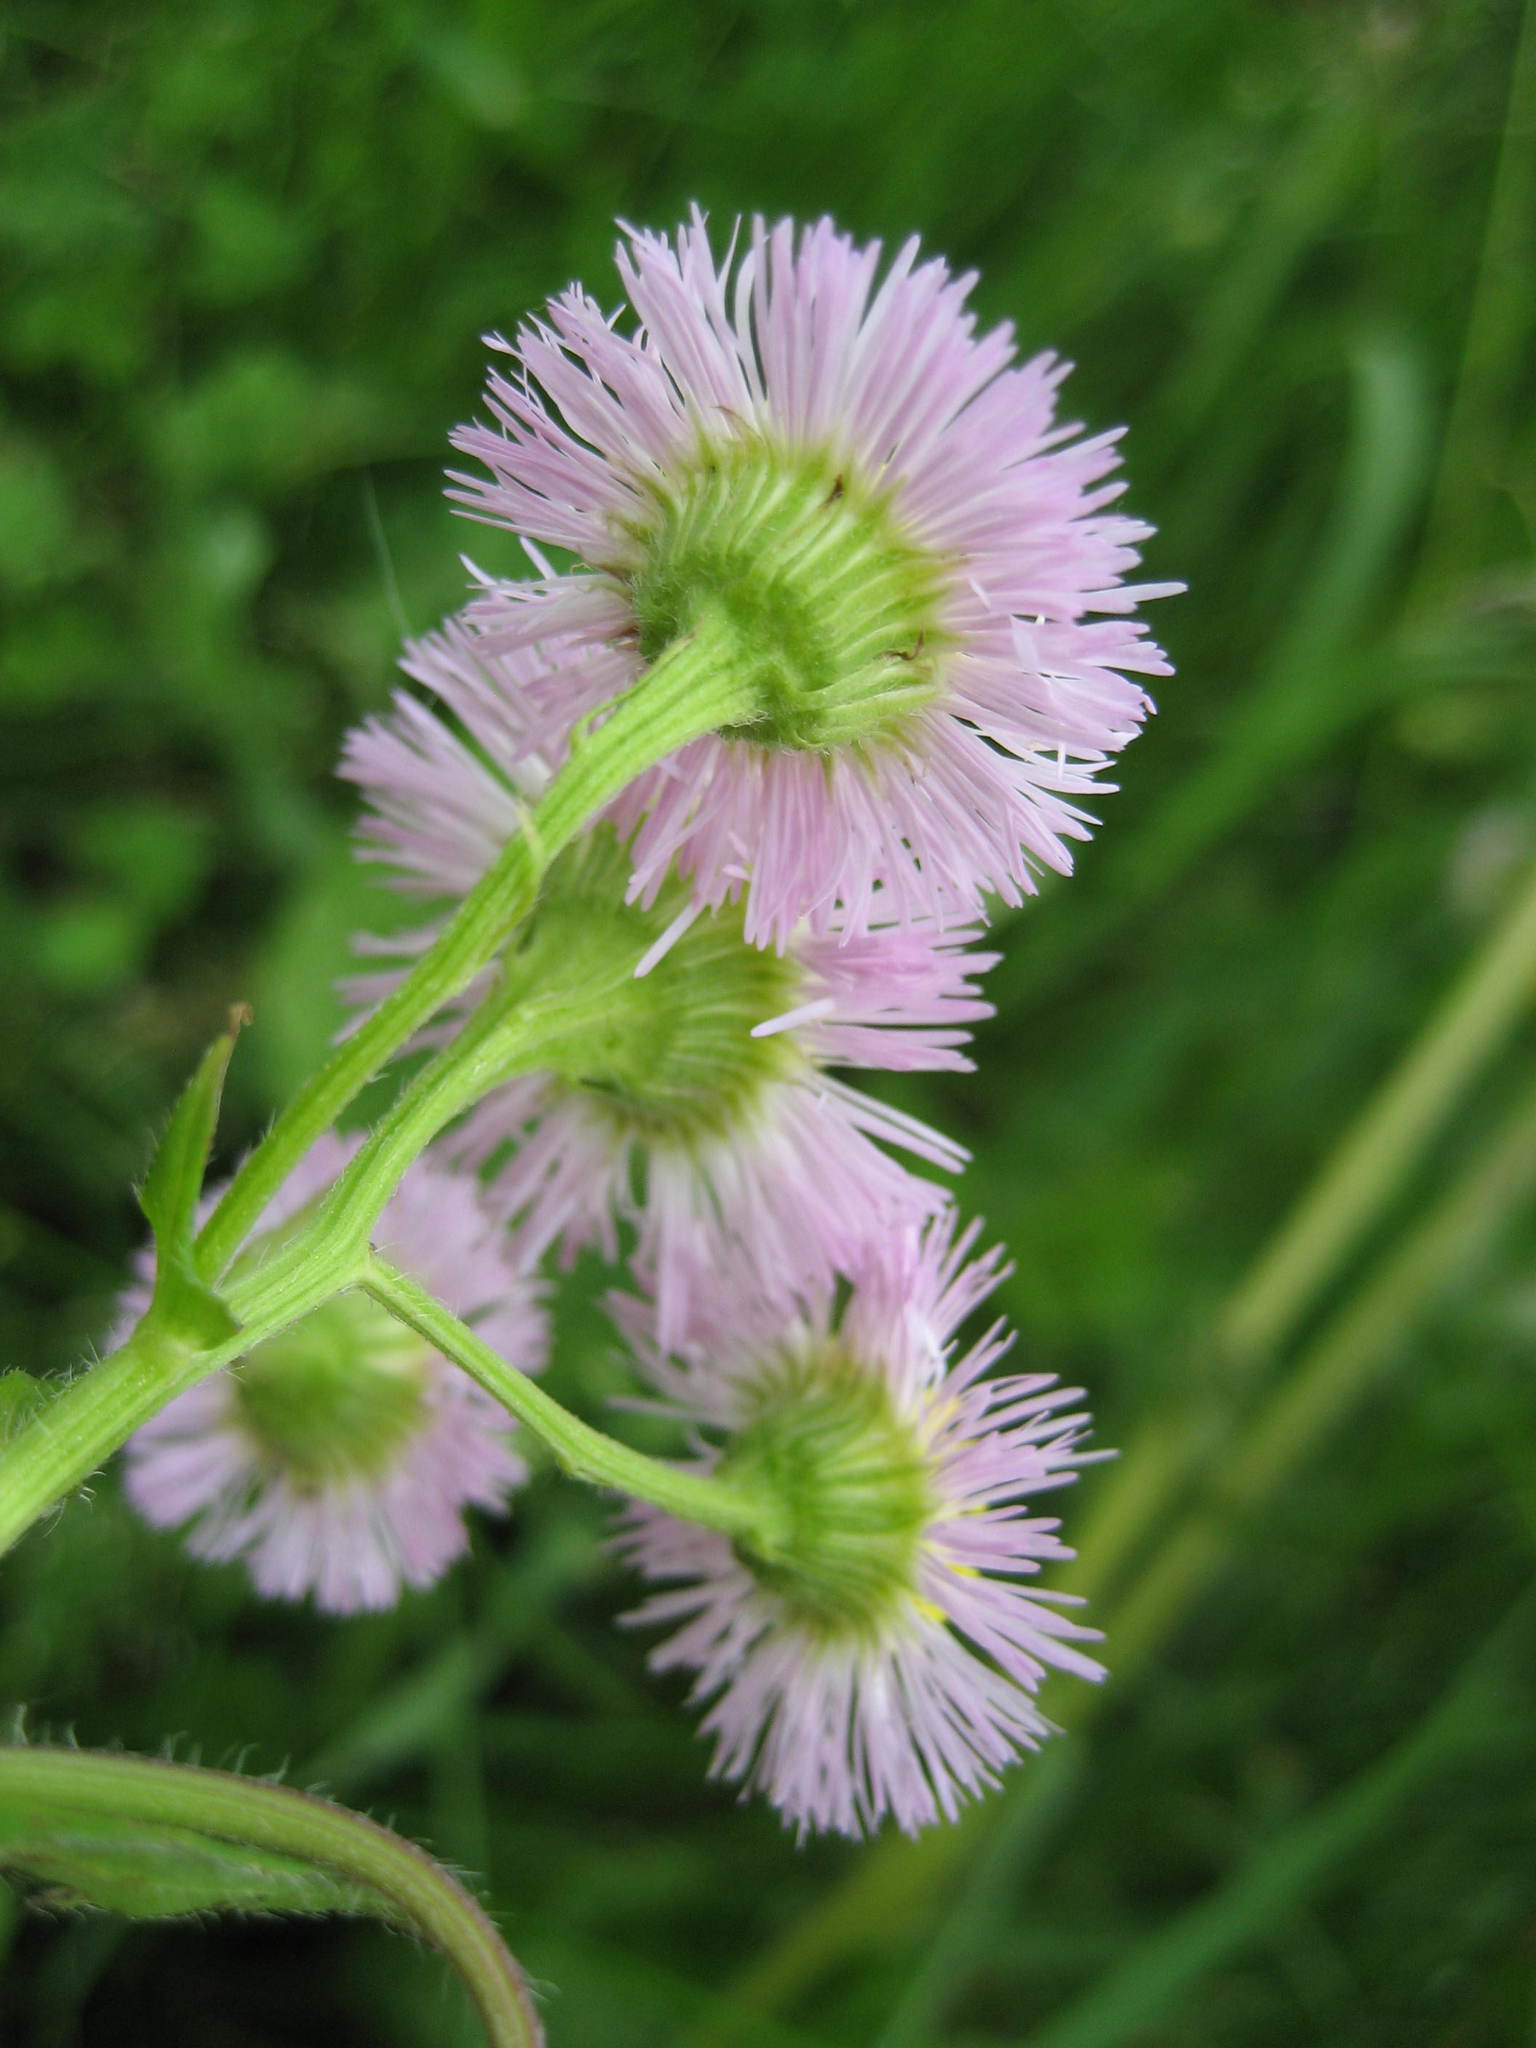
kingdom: Plantae
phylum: Tracheophyta
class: Magnoliopsida
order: Asterales
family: Asteraceae
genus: Erigeron
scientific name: Erigeron philadelphicus
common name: Robin's-plantain
